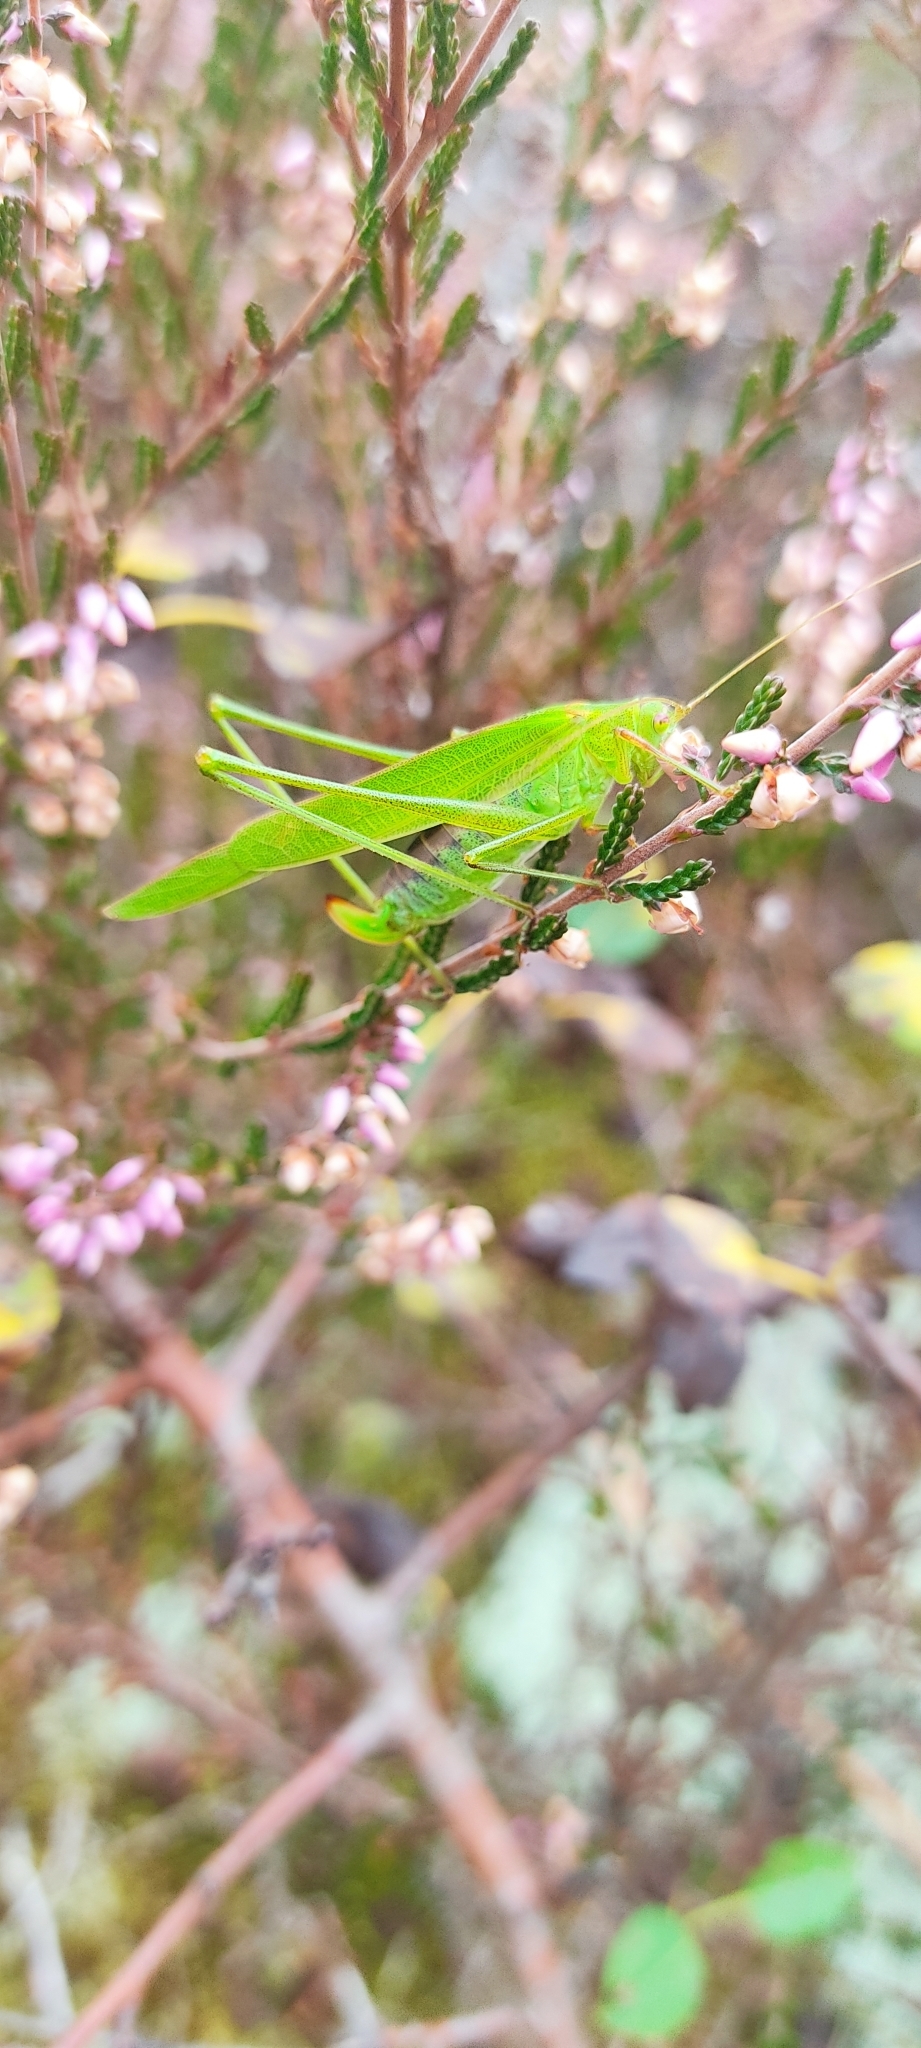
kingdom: Animalia
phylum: Arthropoda
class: Insecta
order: Orthoptera
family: Tettigoniidae
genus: Phaneroptera
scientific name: Phaneroptera falcata
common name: Sickle-bearing bush-cricket
